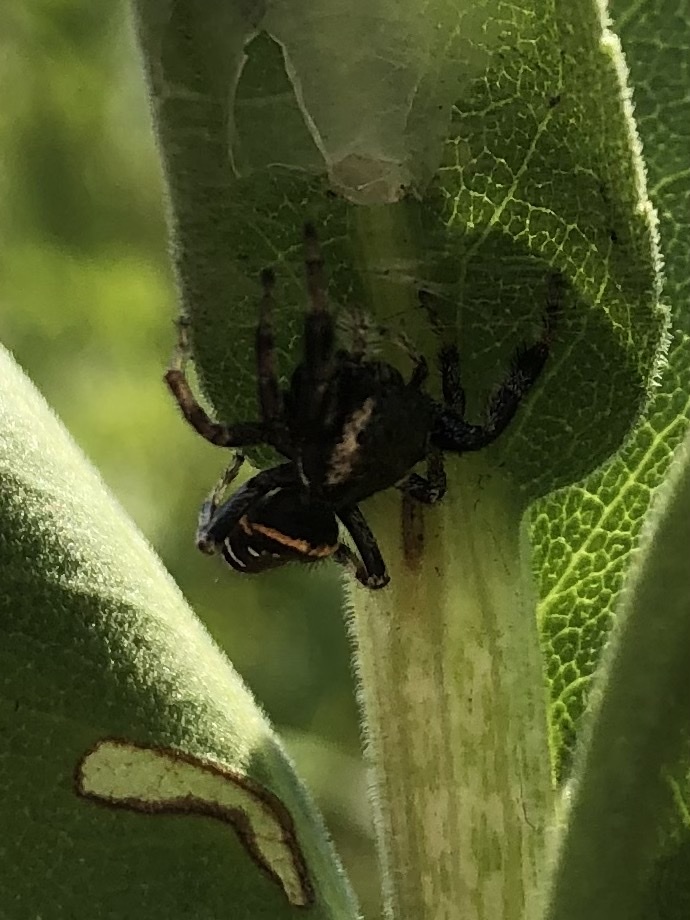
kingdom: Animalia
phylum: Arthropoda
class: Arachnida
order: Araneae
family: Salticidae
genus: Paraphidippus
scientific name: Paraphidippus aurantius
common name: Jumping spiders
